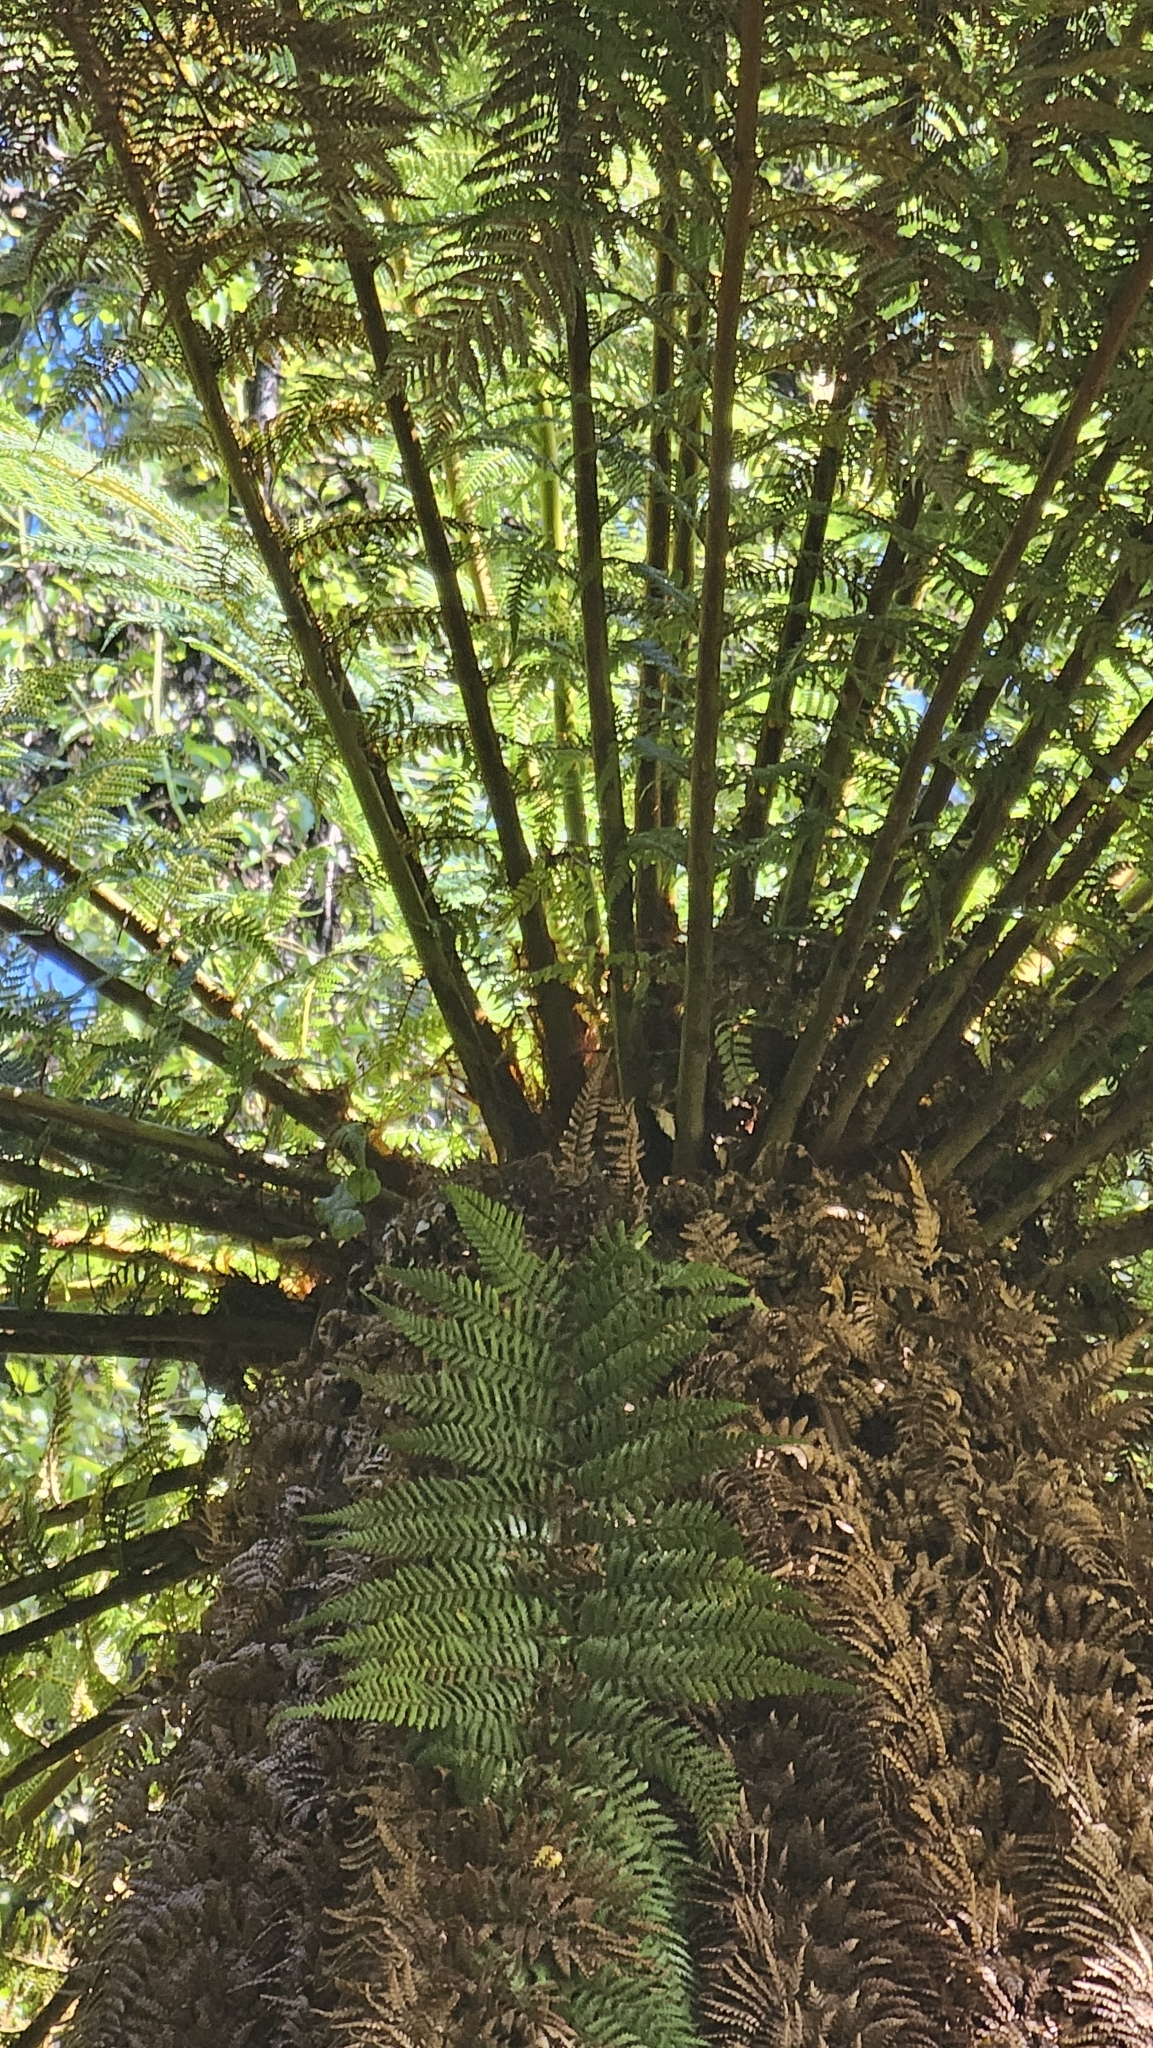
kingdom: Plantae
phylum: Tracheophyta
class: Polypodiopsida
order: Cyatheales
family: Dicksoniaceae
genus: Dicksonia
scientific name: Dicksonia fibrosa
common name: Golden tree fern
